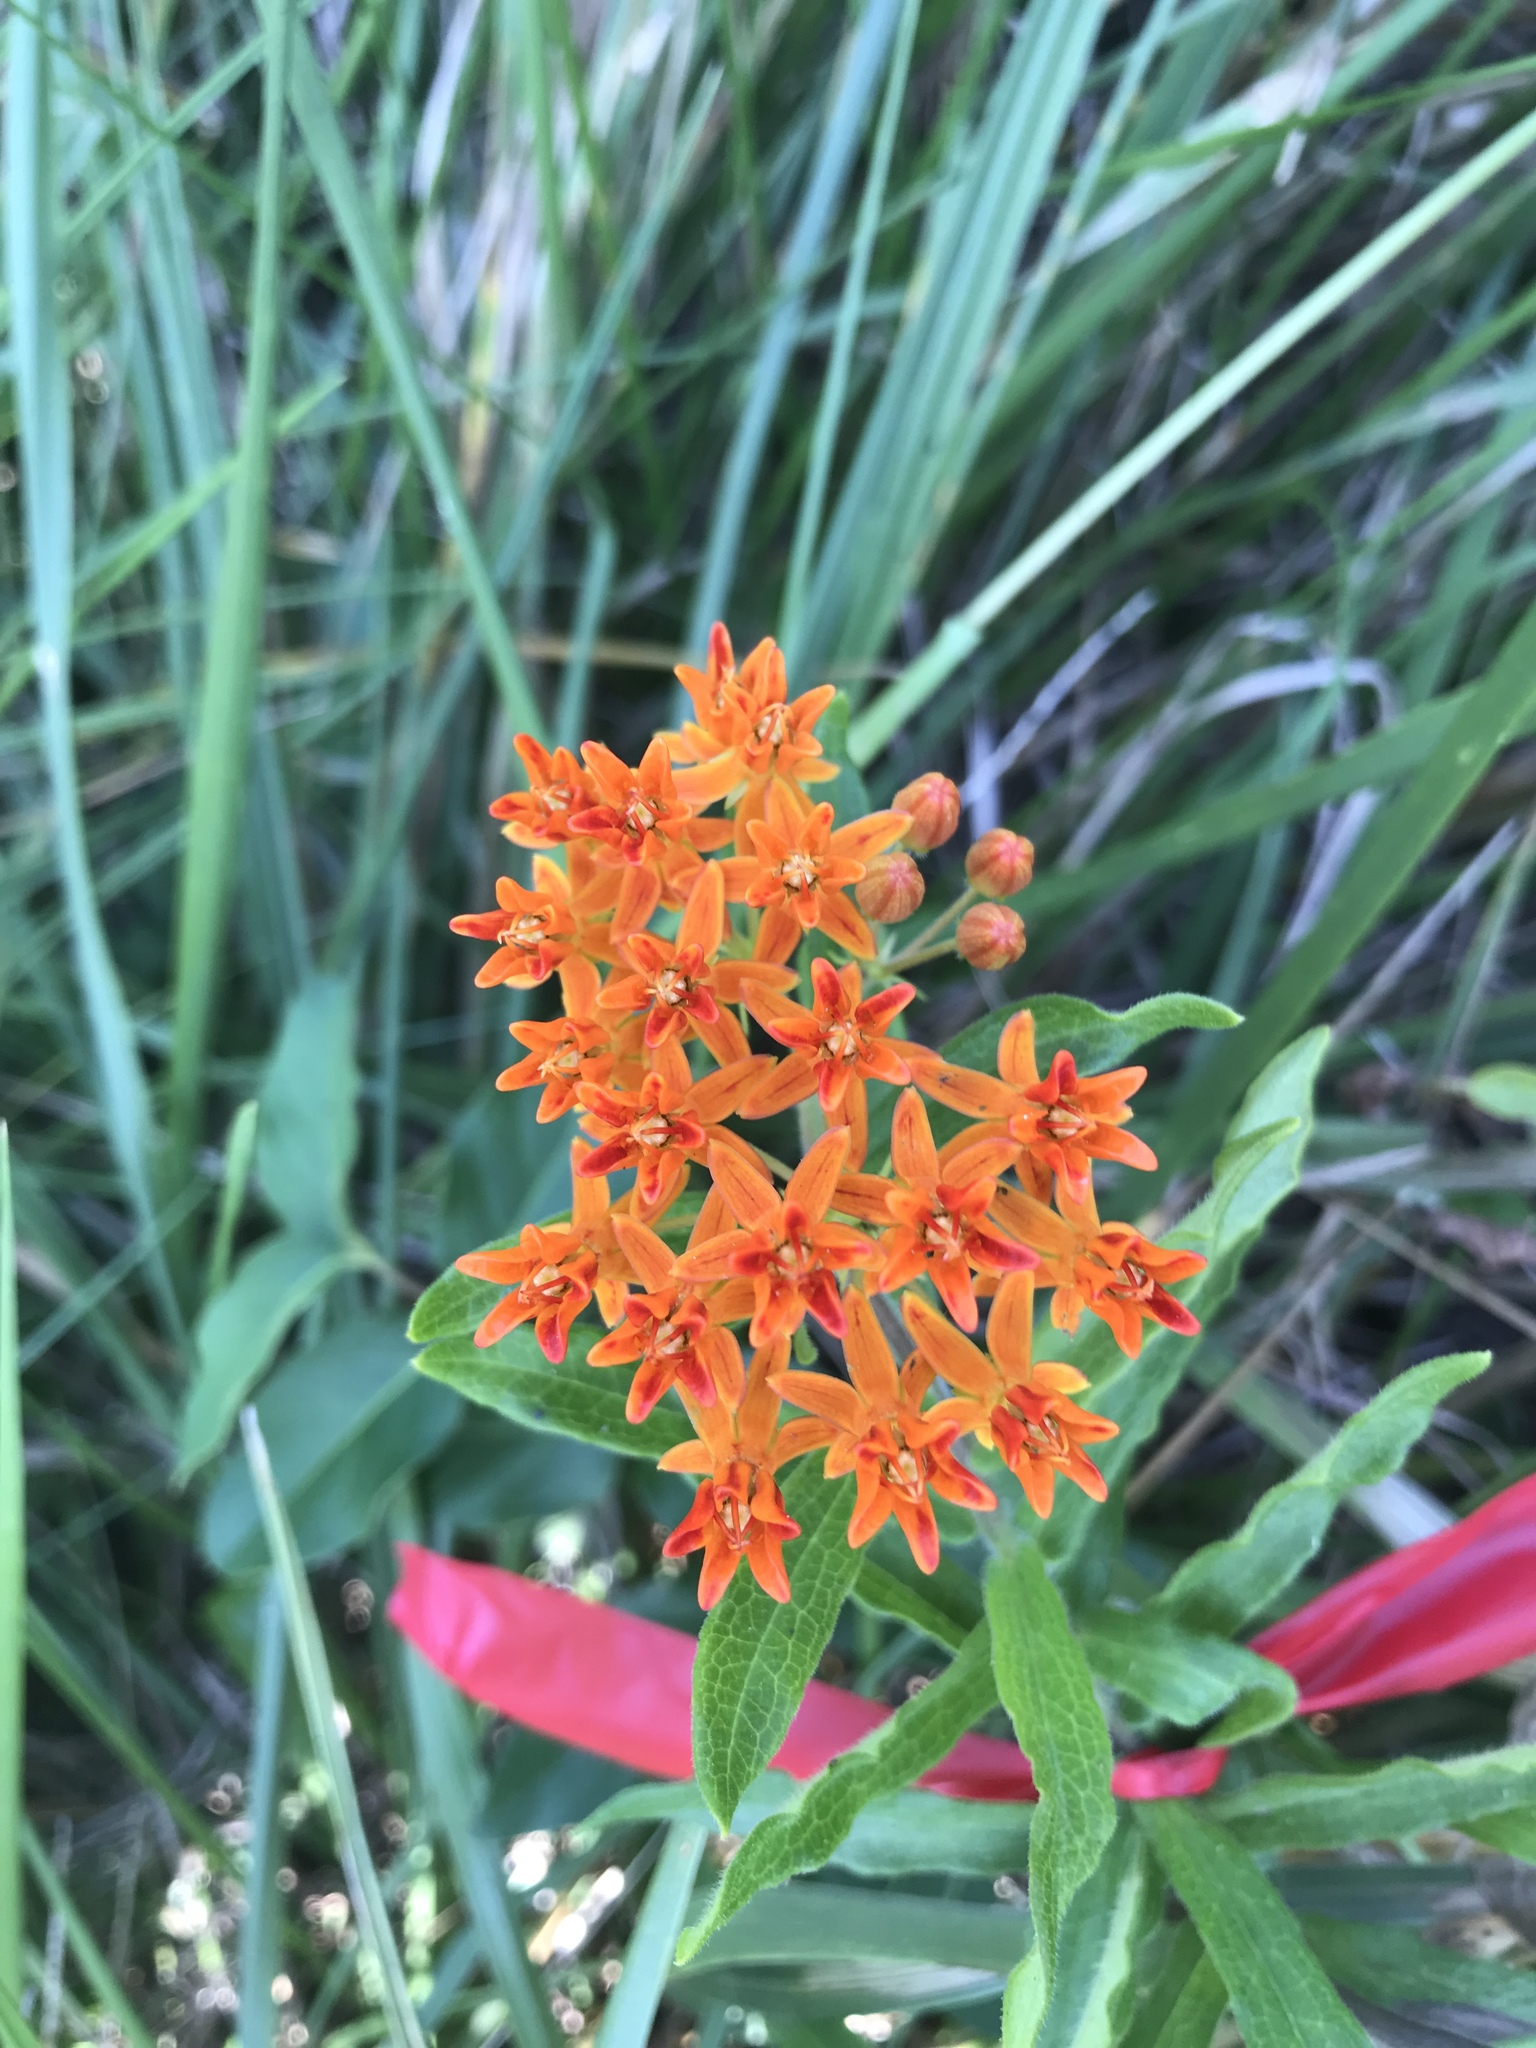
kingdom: Plantae
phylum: Tracheophyta
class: Magnoliopsida
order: Gentianales
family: Apocynaceae
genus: Asclepias
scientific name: Asclepias tuberosa
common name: Butterfly milkweed
